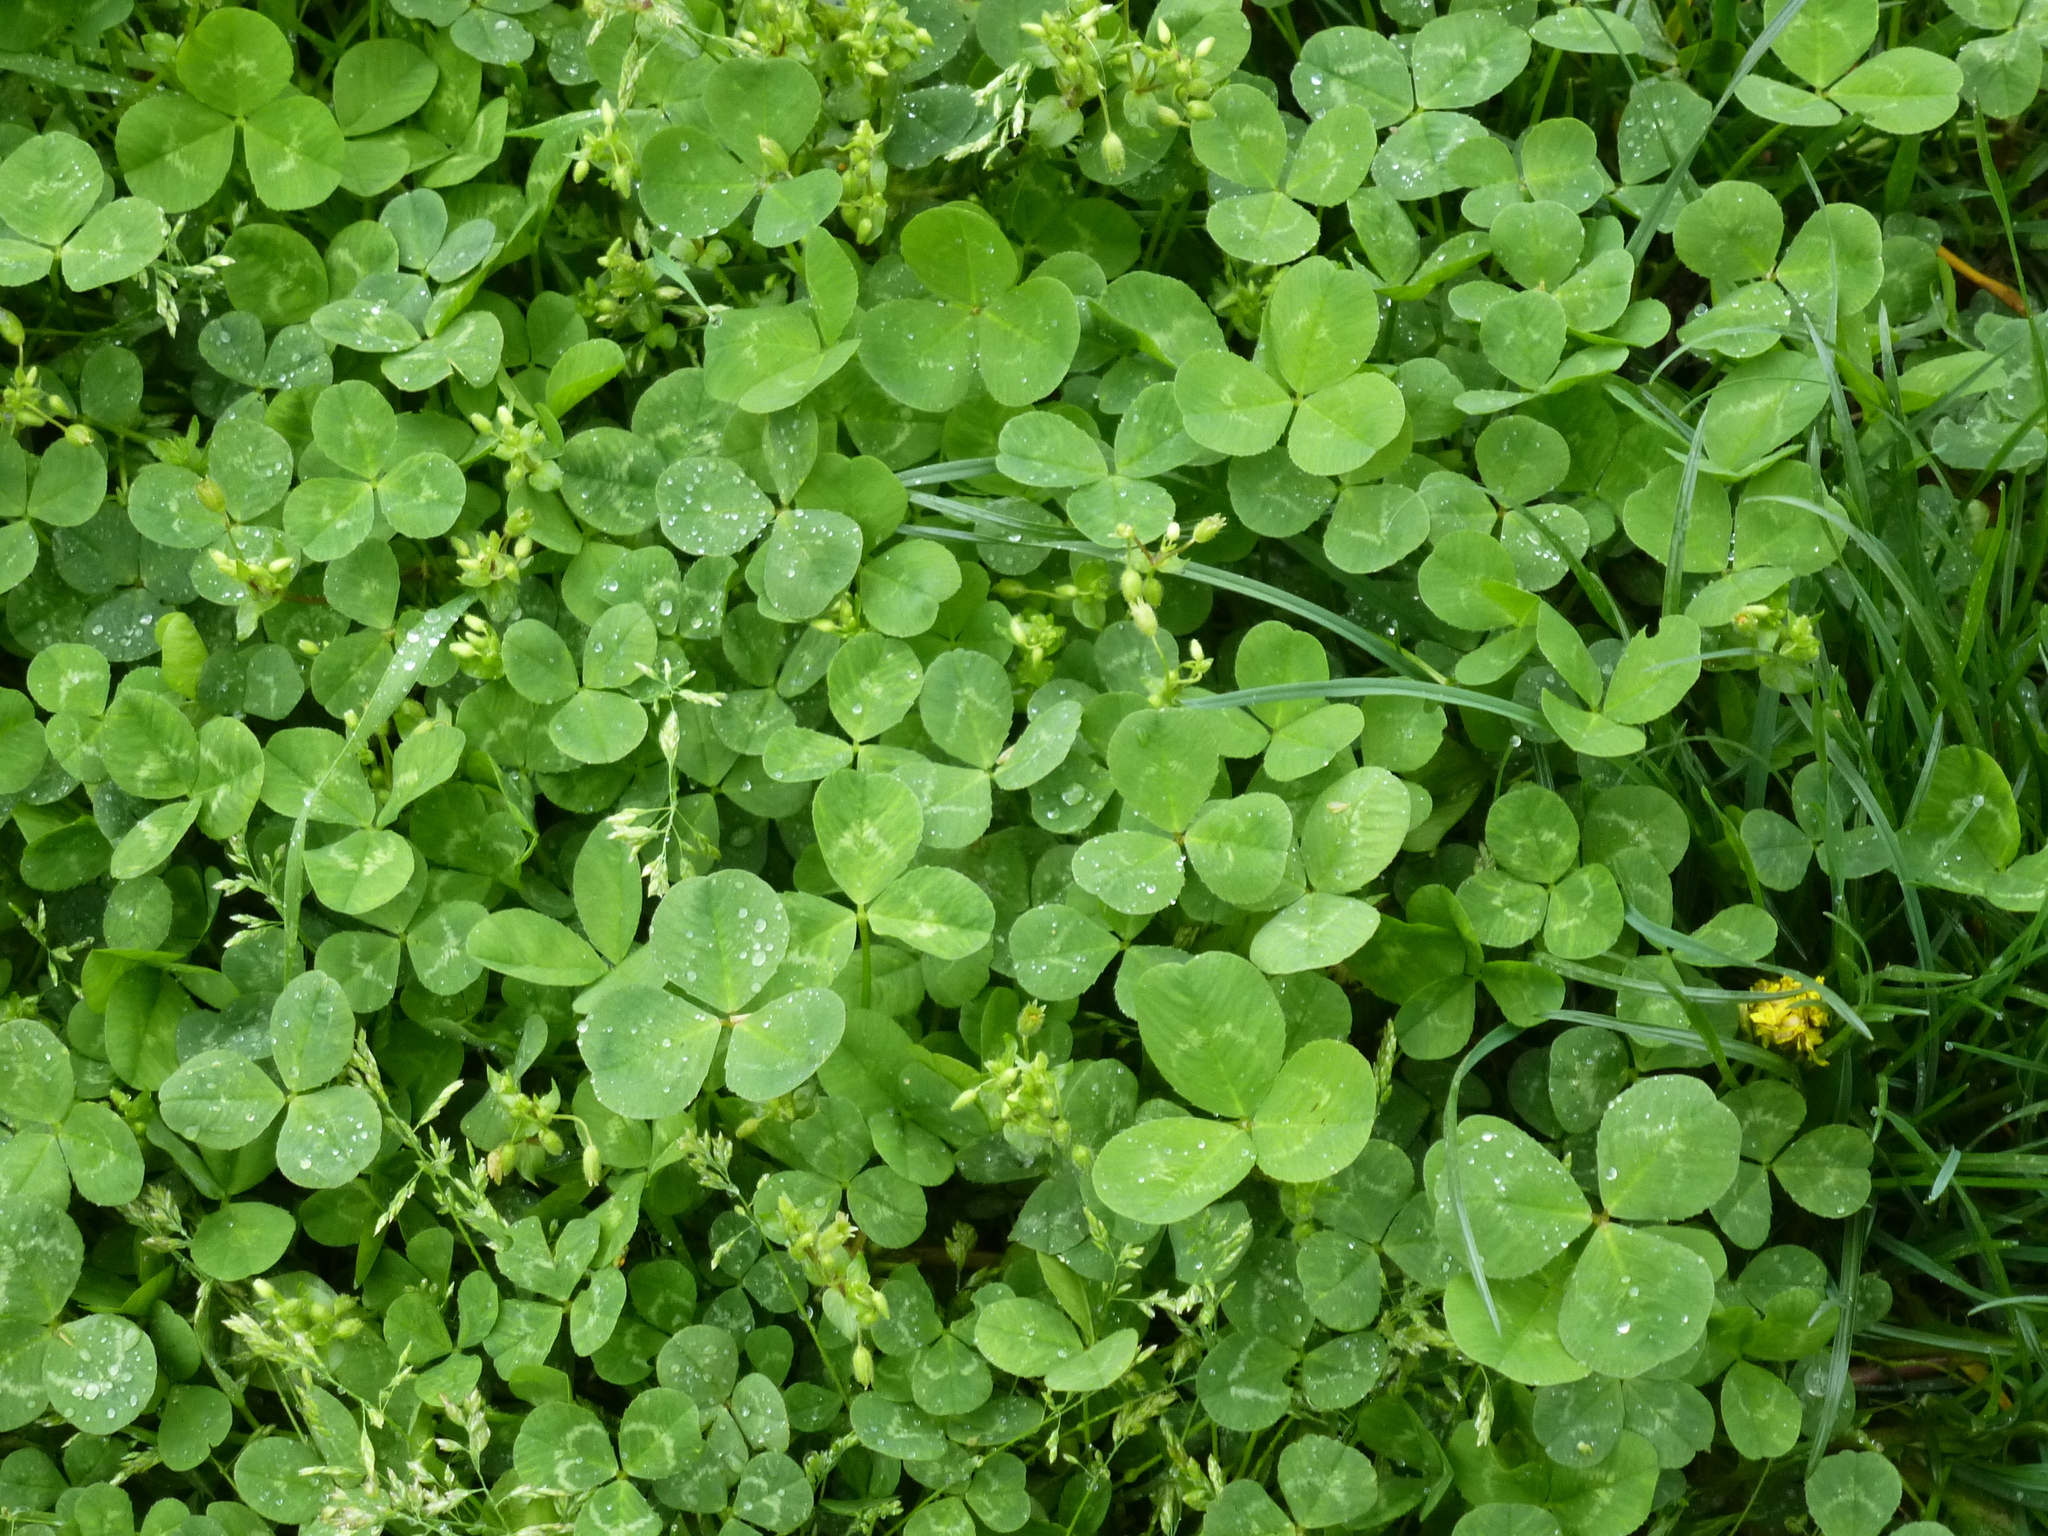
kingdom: Plantae
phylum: Tracheophyta
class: Magnoliopsida
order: Fabales
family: Fabaceae
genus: Trifolium
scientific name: Trifolium repens
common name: White clover
